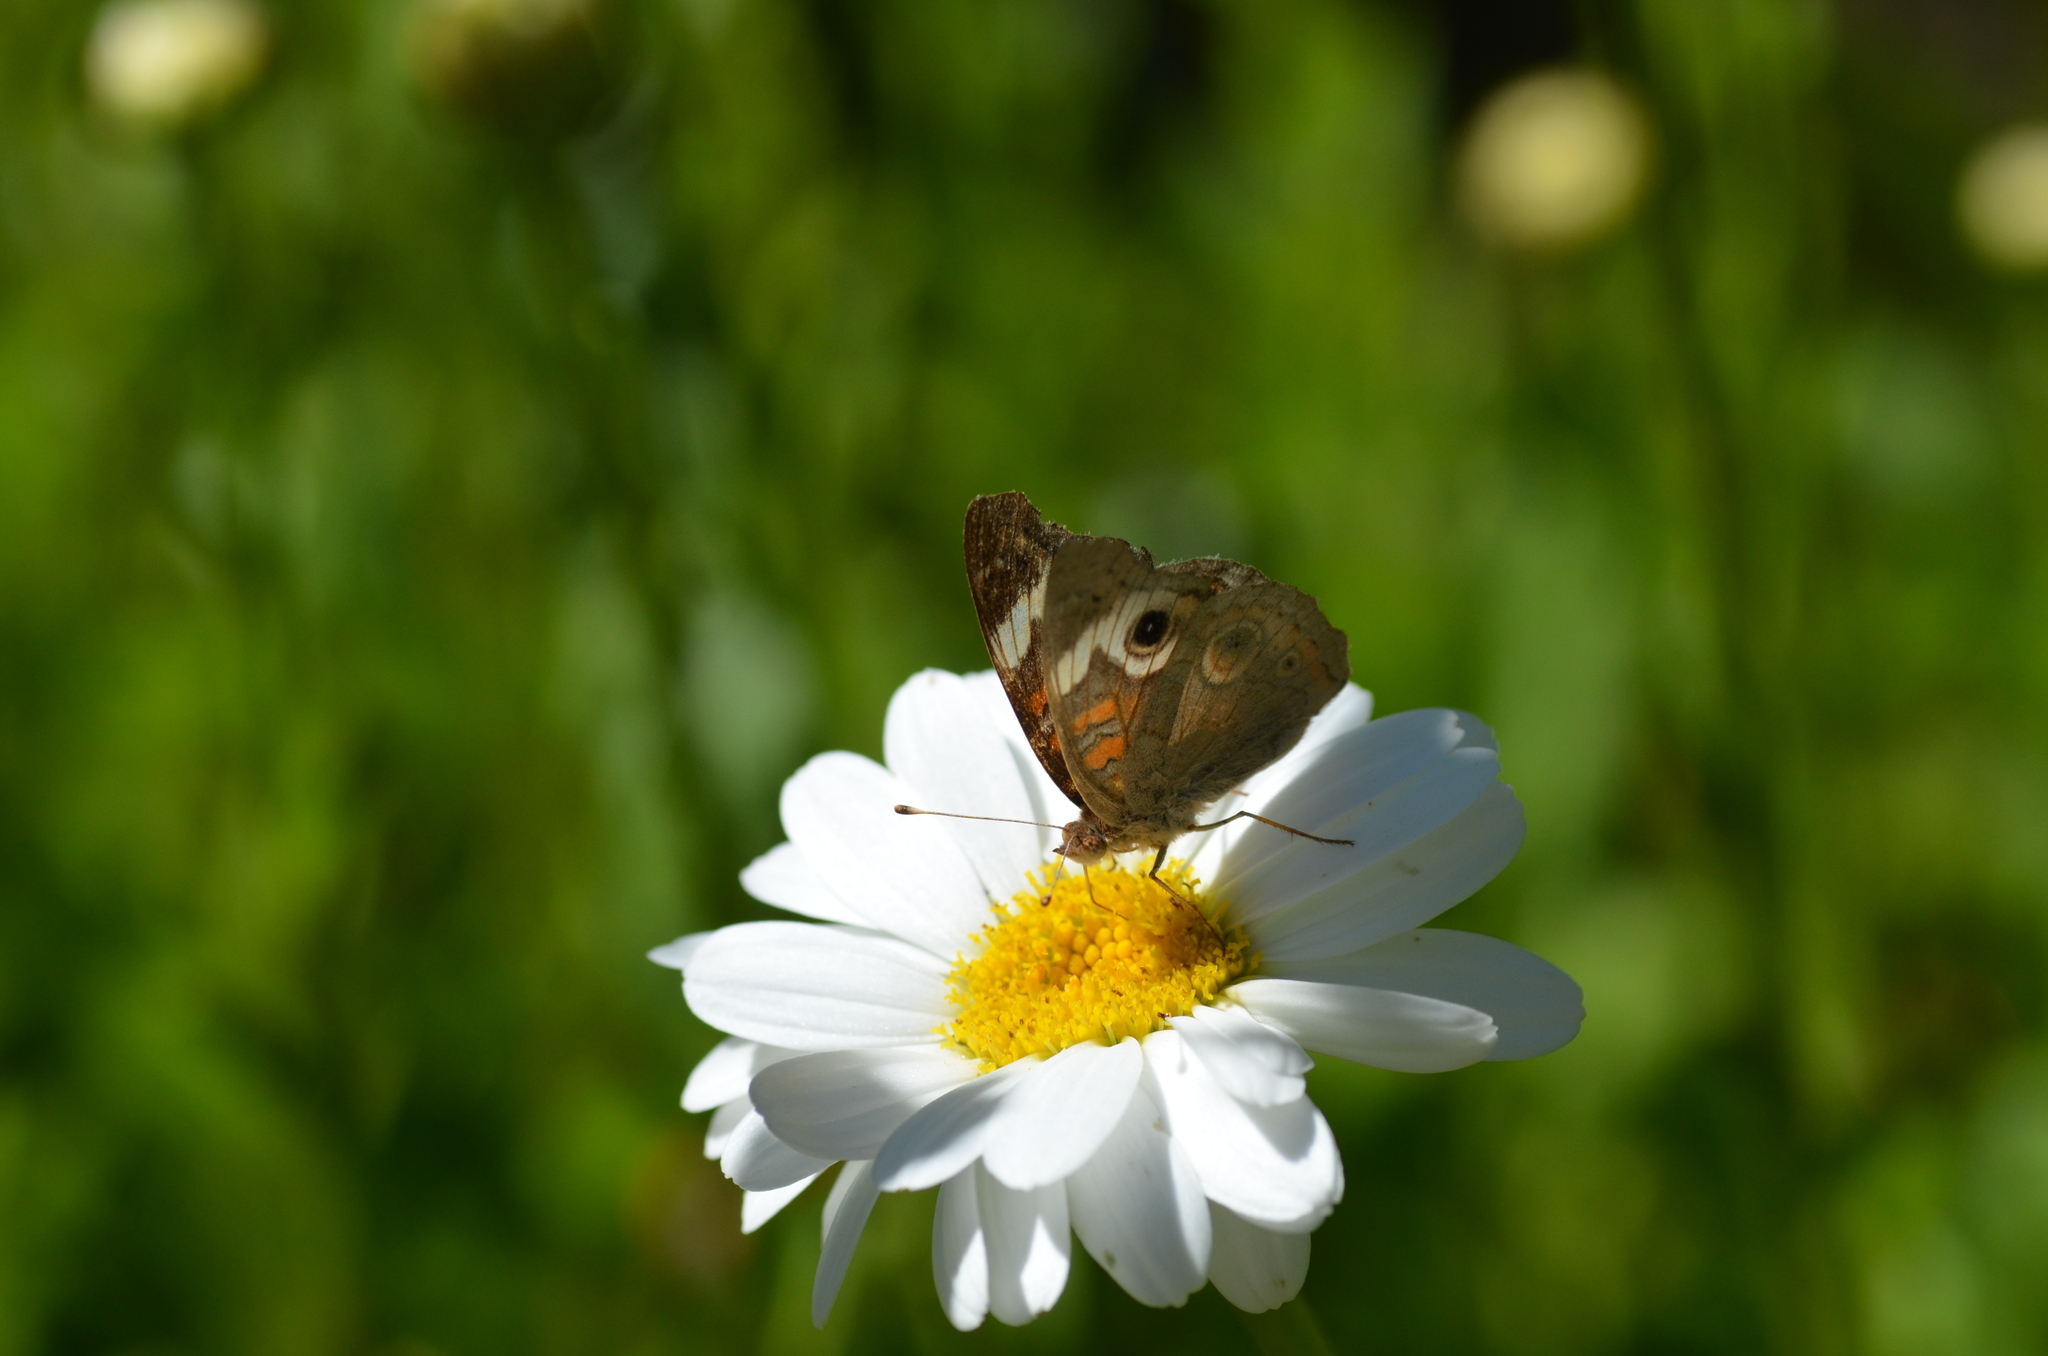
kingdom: Animalia
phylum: Arthropoda
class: Insecta
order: Lepidoptera
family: Nymphalidae
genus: Junonia
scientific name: Junonia grisea
